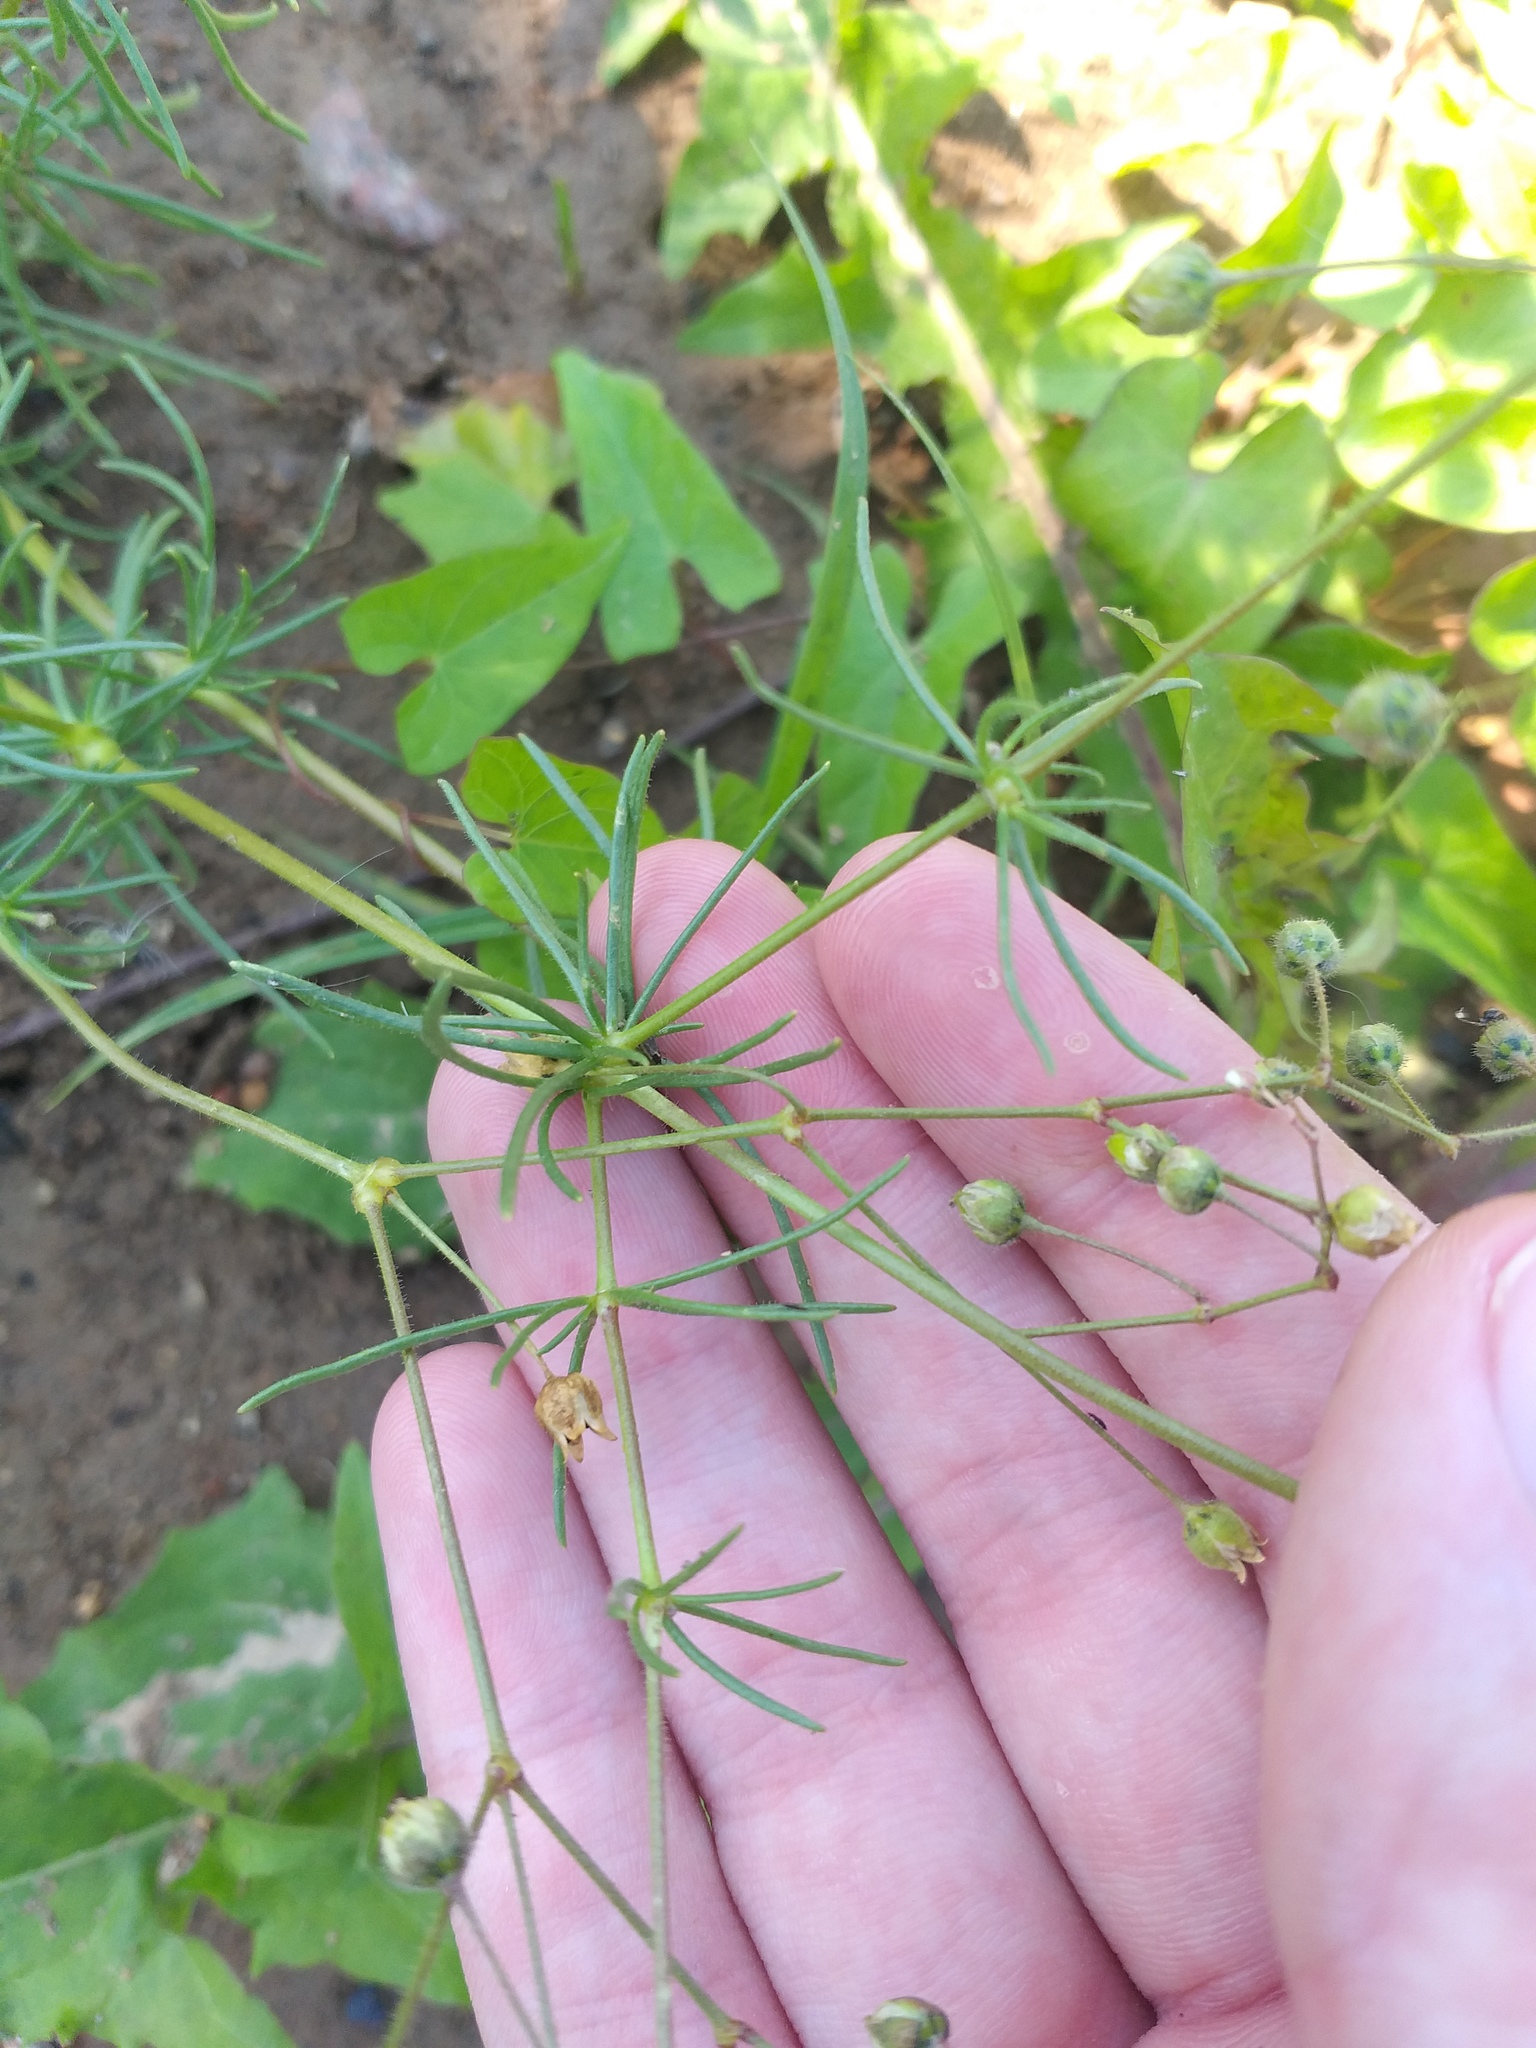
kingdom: Plantae
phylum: Tracheophyta
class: Magnoliopsida
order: Caryophyllales
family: Caryophyllaceae
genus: Spergula
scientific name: Spergula arvensis
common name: Corn spurrey
